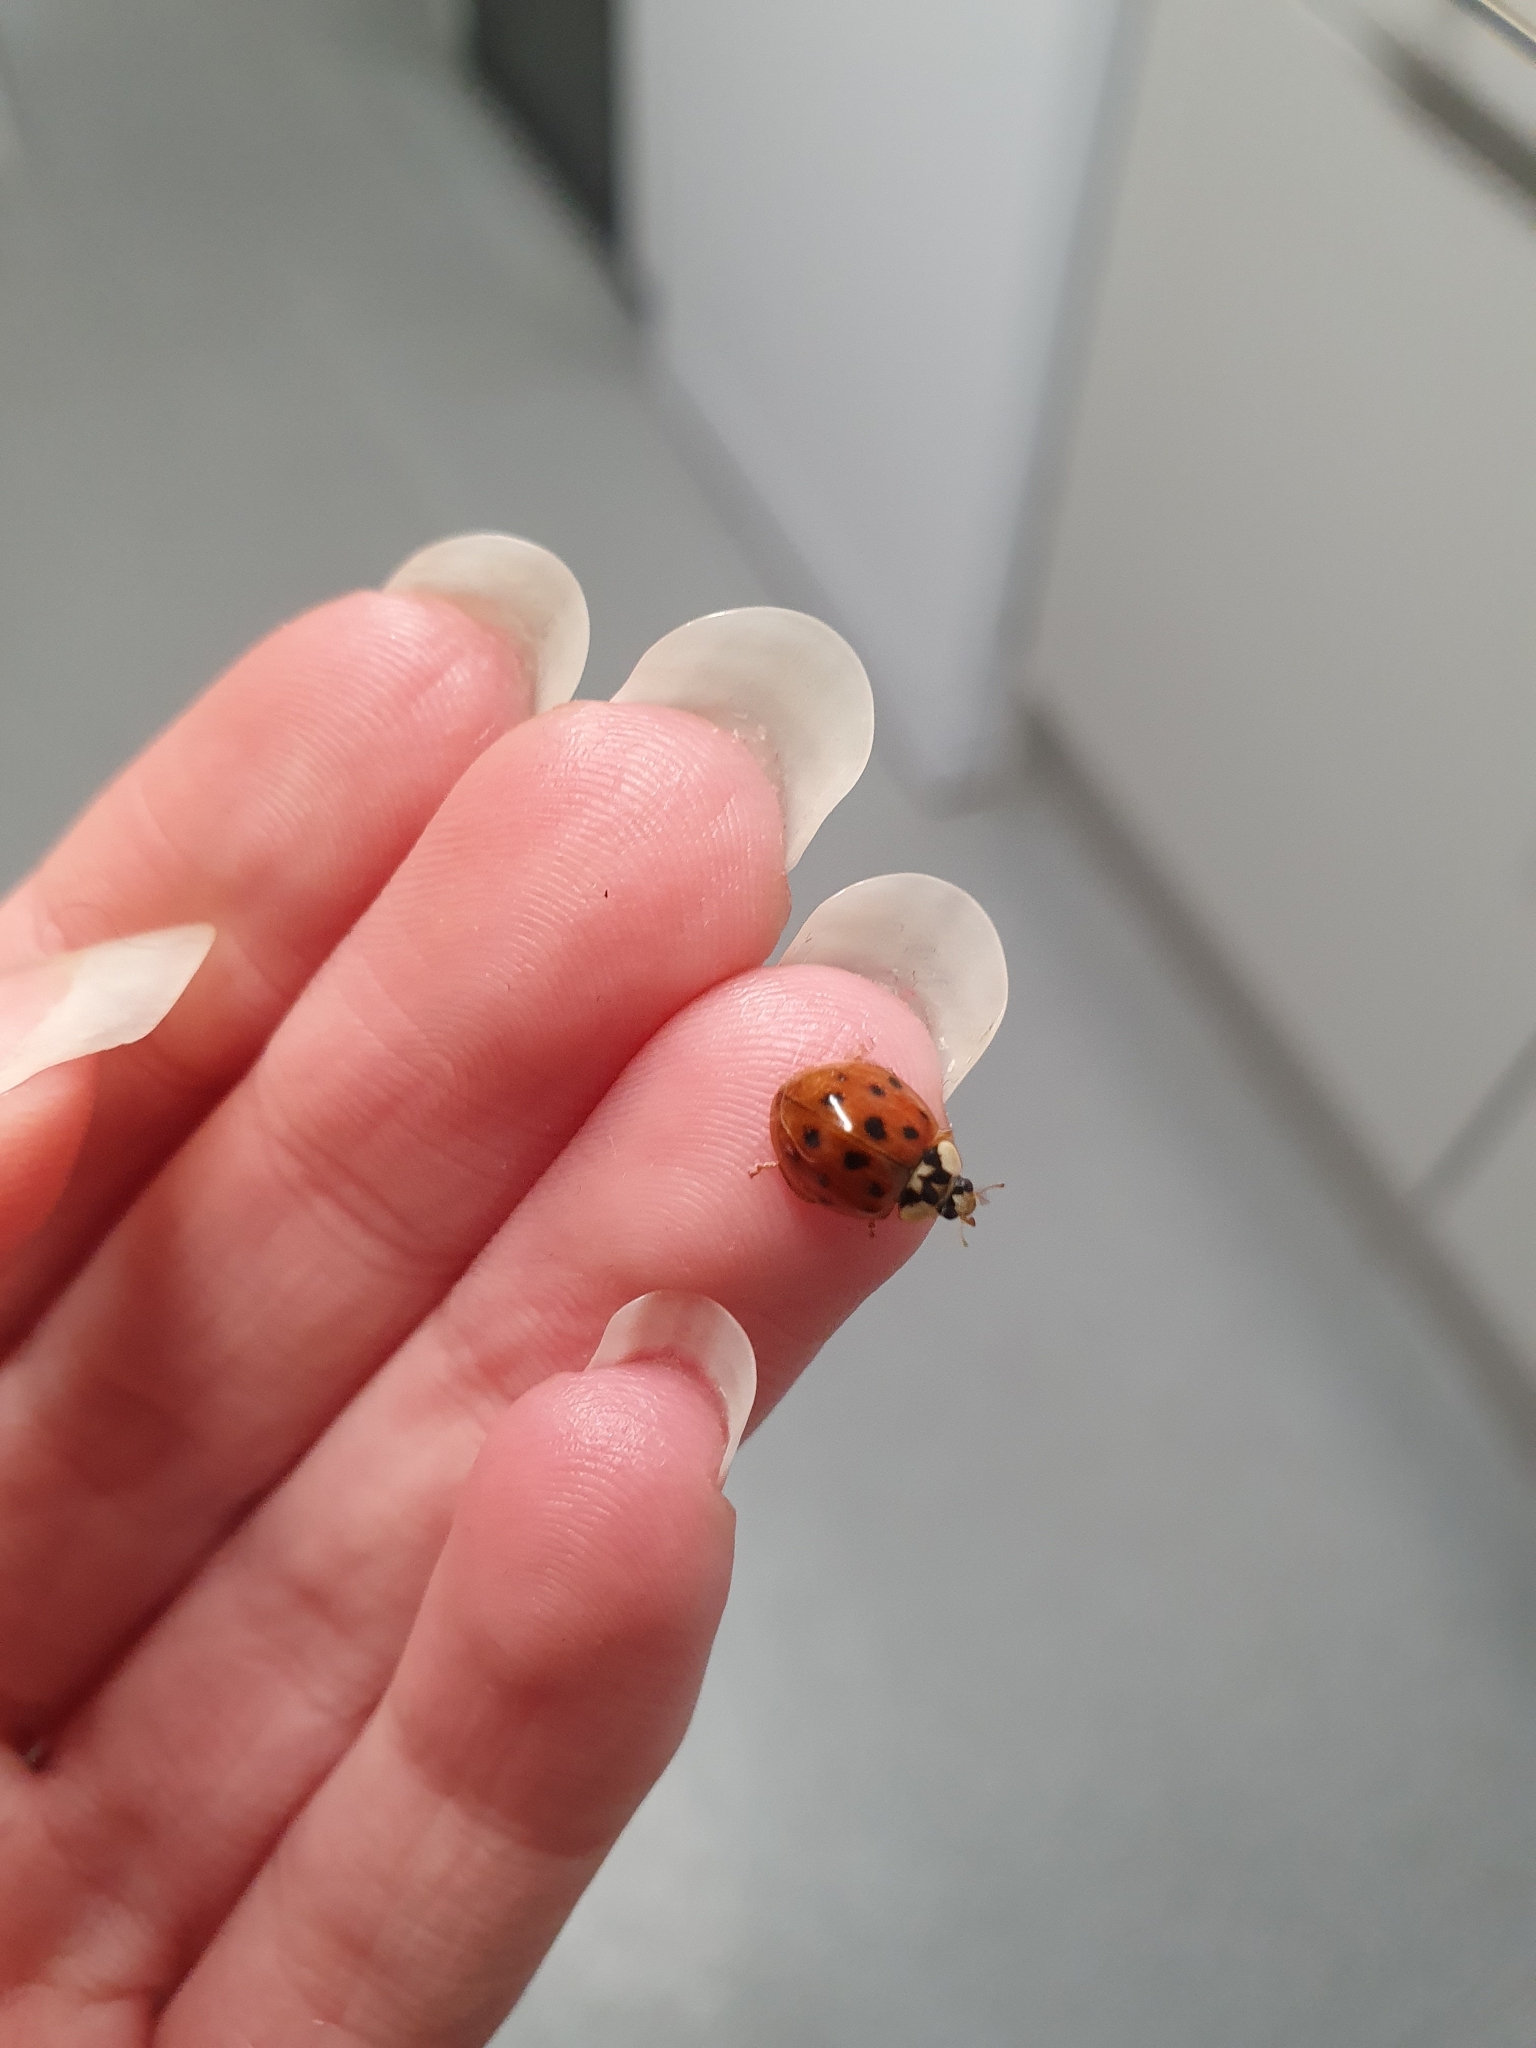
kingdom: Animalia
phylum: Arthropoda
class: Insecta
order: Coleoptera
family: Coccinellidae
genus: Harmonia
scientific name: Harmonia axyridis
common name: Harlequin ladybird
